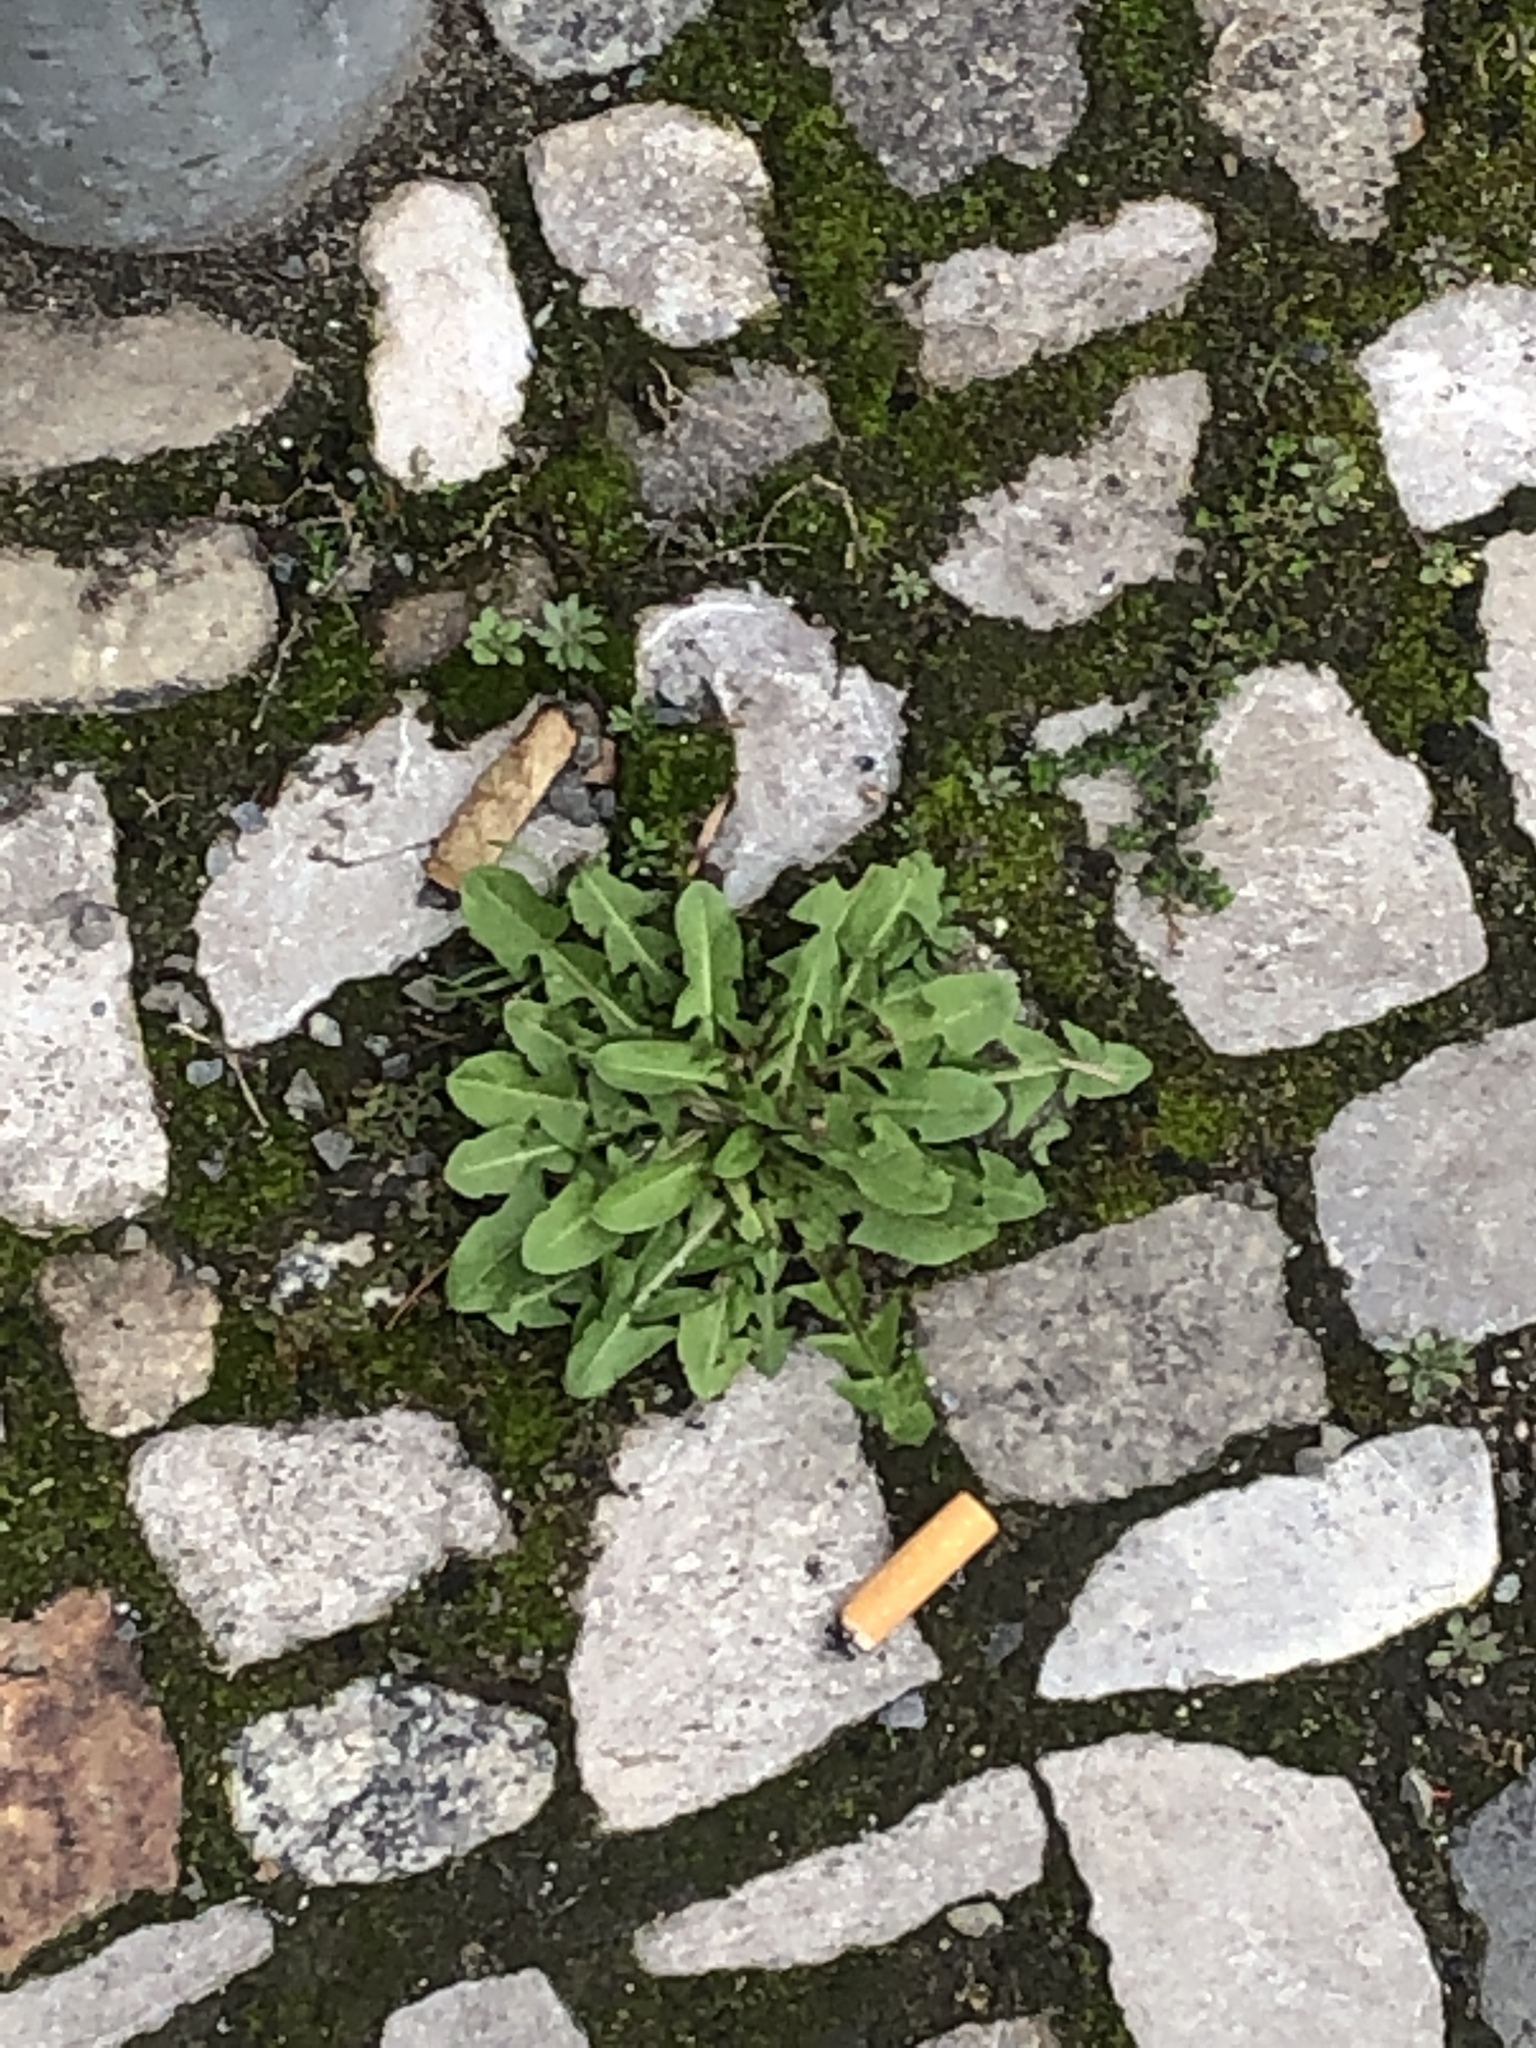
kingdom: Plantae
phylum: Tracheophyta
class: Magnoliopsida
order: Asterales
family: Asteraceae
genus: Taraxacum
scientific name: Taraxacum officinale
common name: Common dandelion
